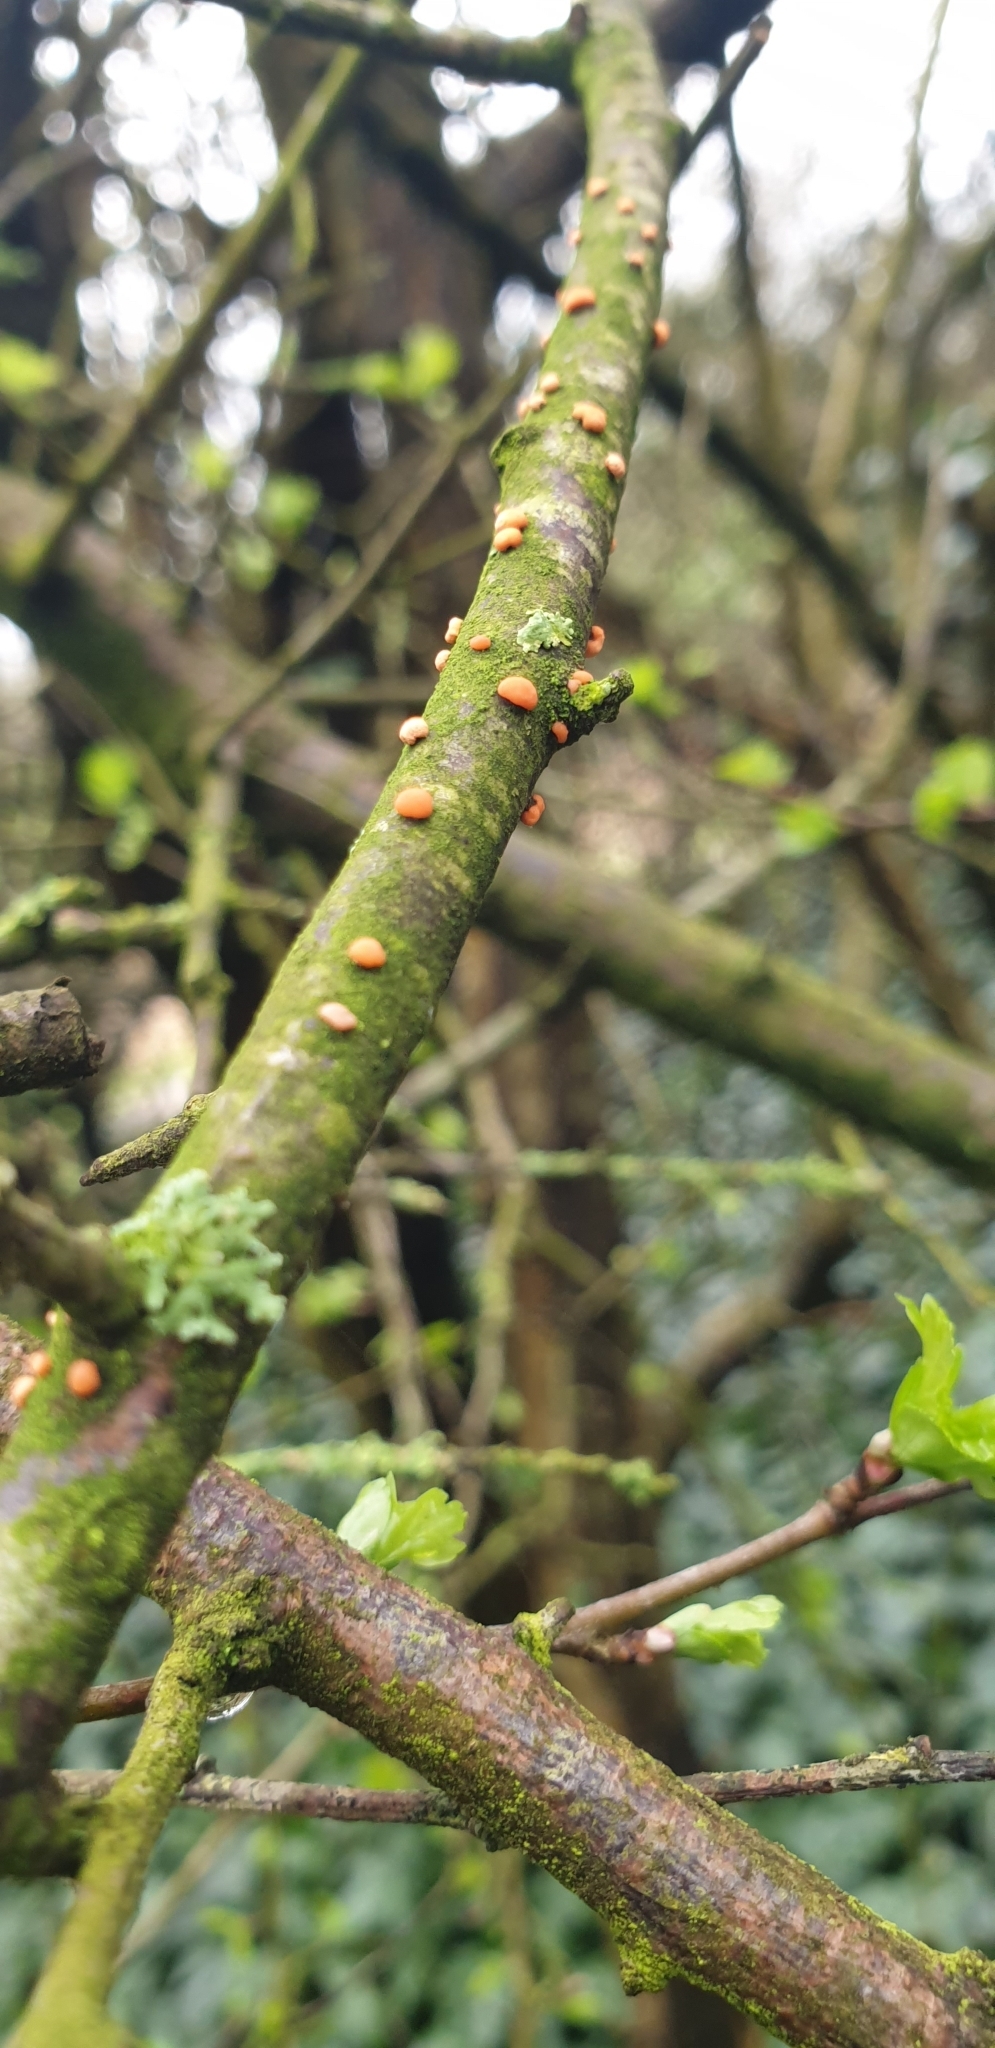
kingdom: Fungi
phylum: Ascomycota
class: Sordariomycetes
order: Hypocreales
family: Nectriaceae
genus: Nectria
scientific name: Nectria cinnabarina
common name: Coral spot
